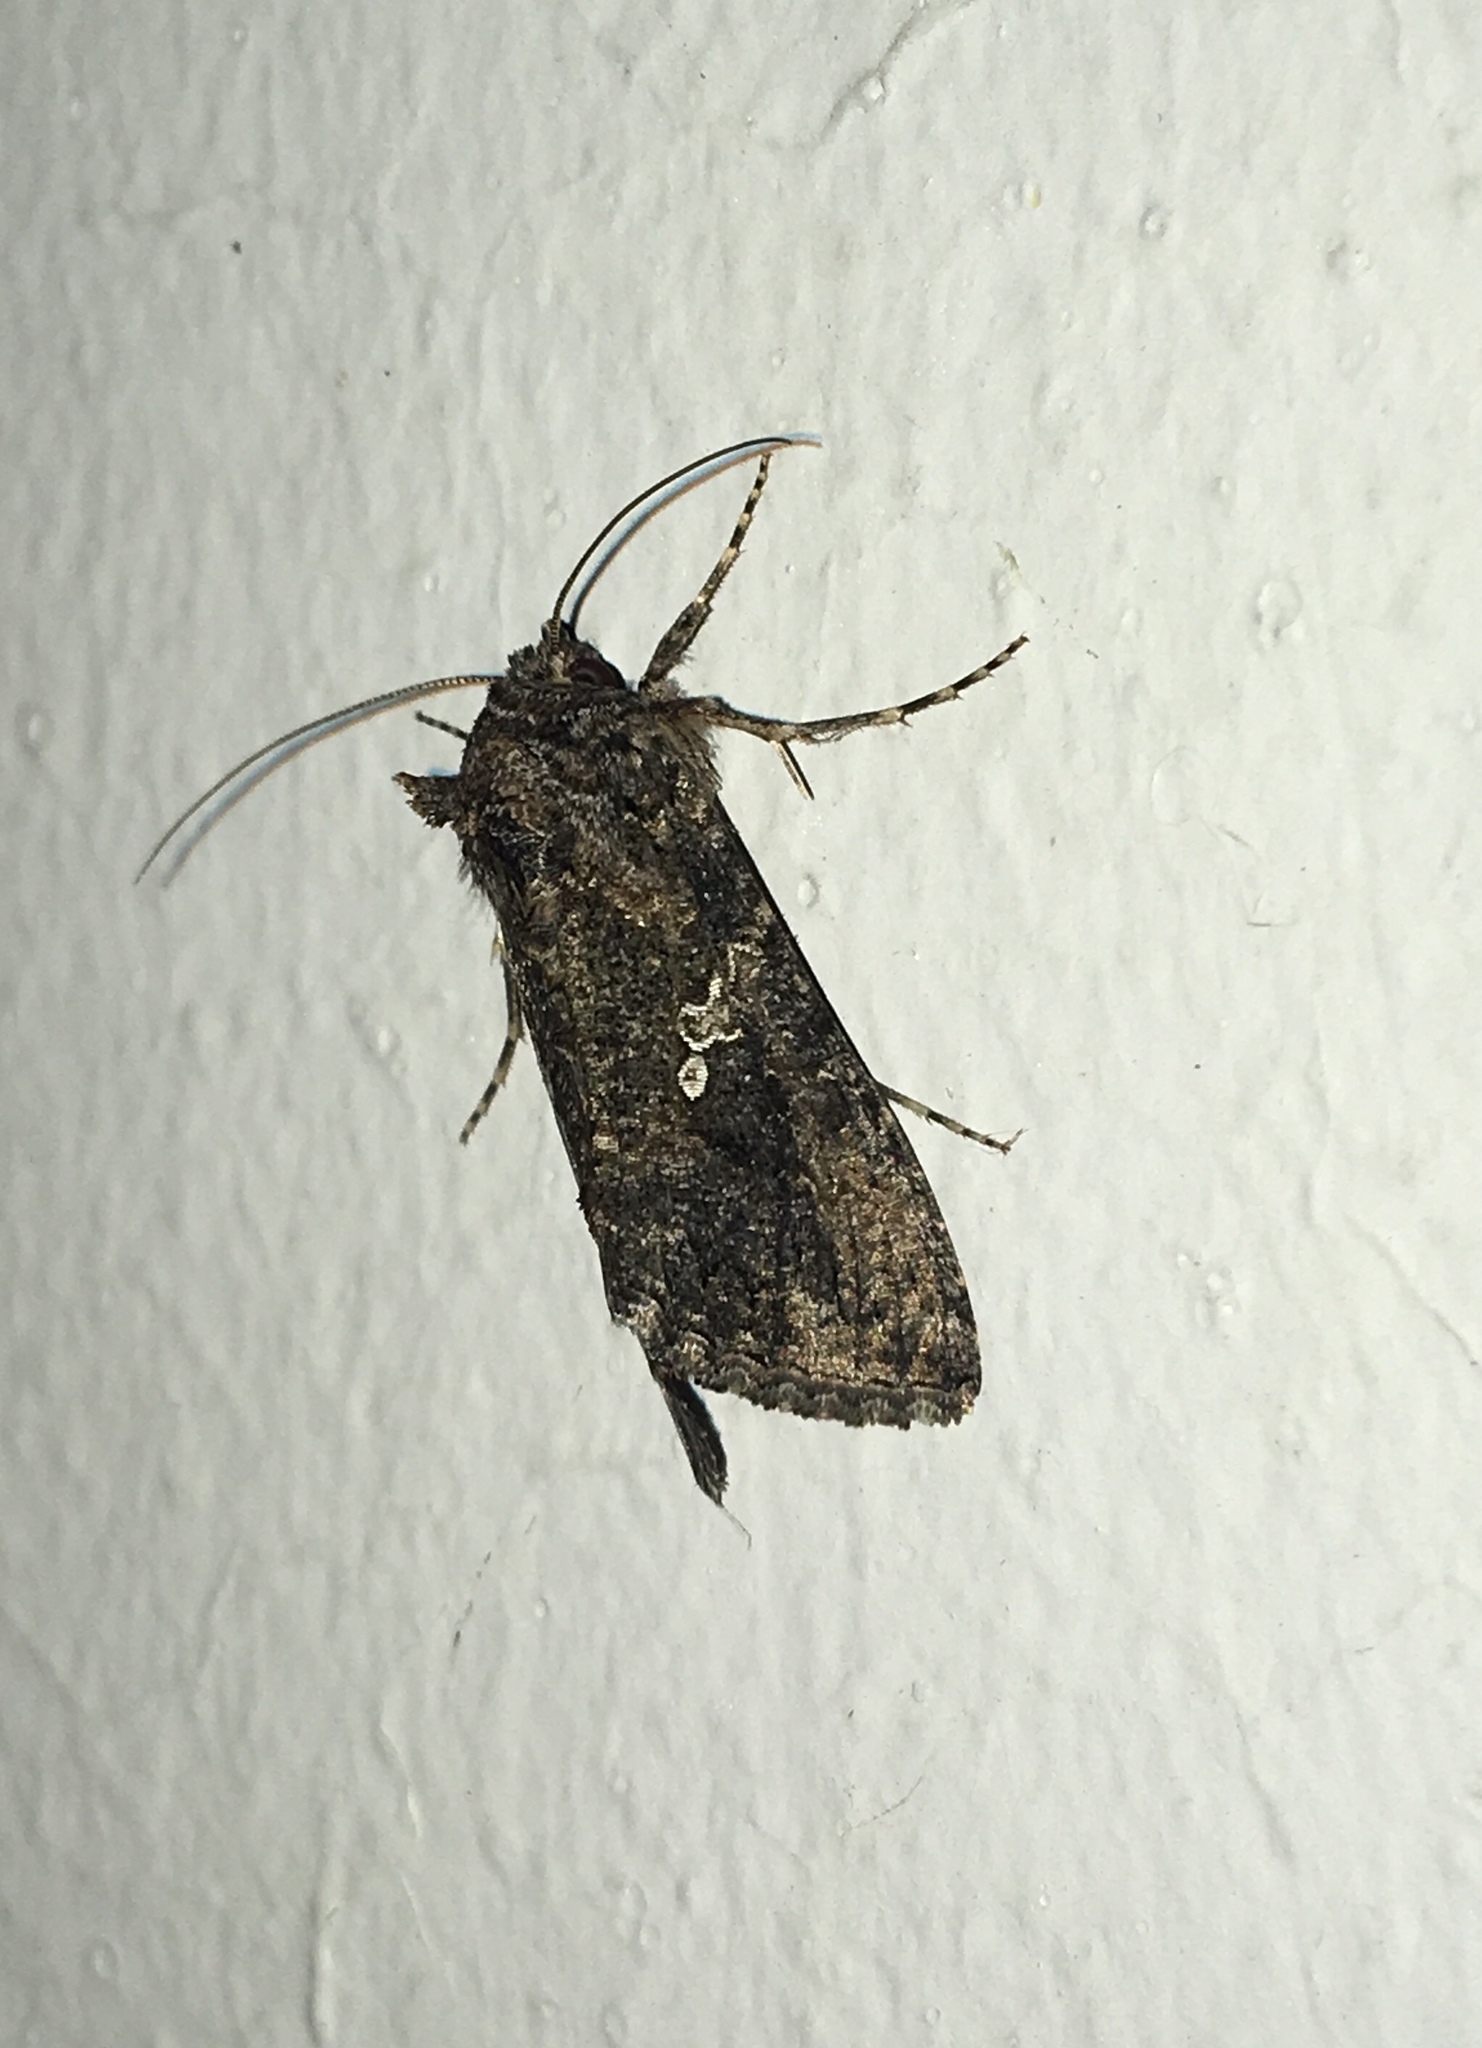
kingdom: Animalia
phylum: Arthropoda
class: Insecta
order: Lepidoptera
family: Noctuidae
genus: Trichoplusia
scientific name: Trichoplusia ni
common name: Ni moth
